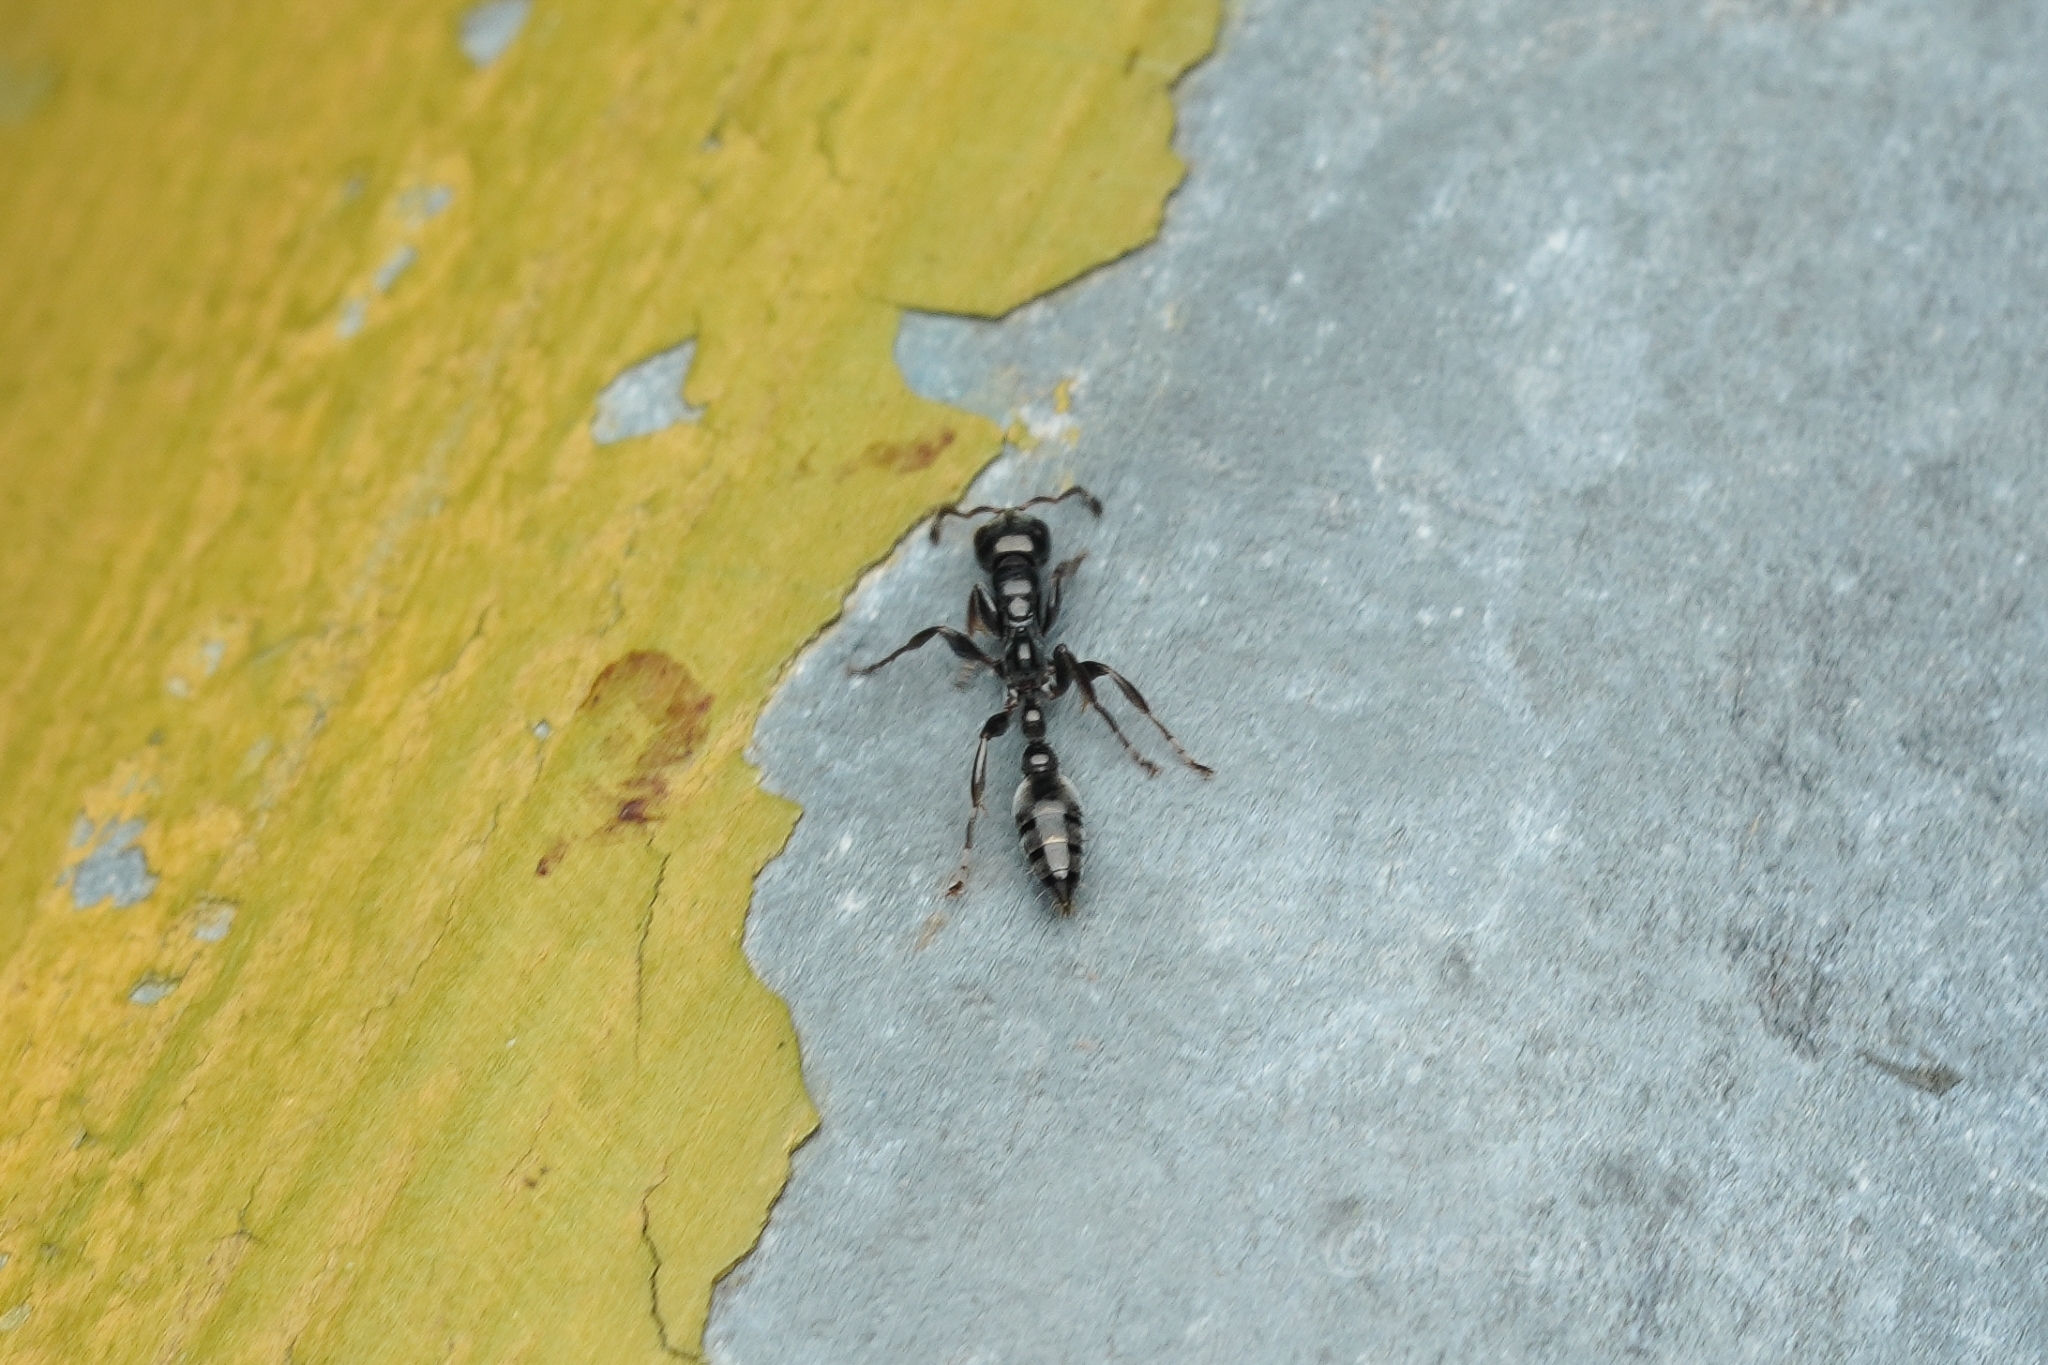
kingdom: Animalia
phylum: Arthropoda
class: Insecta
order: Hymenoptera
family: Formicidae
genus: Tetraponera
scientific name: Tetraponera nigra
